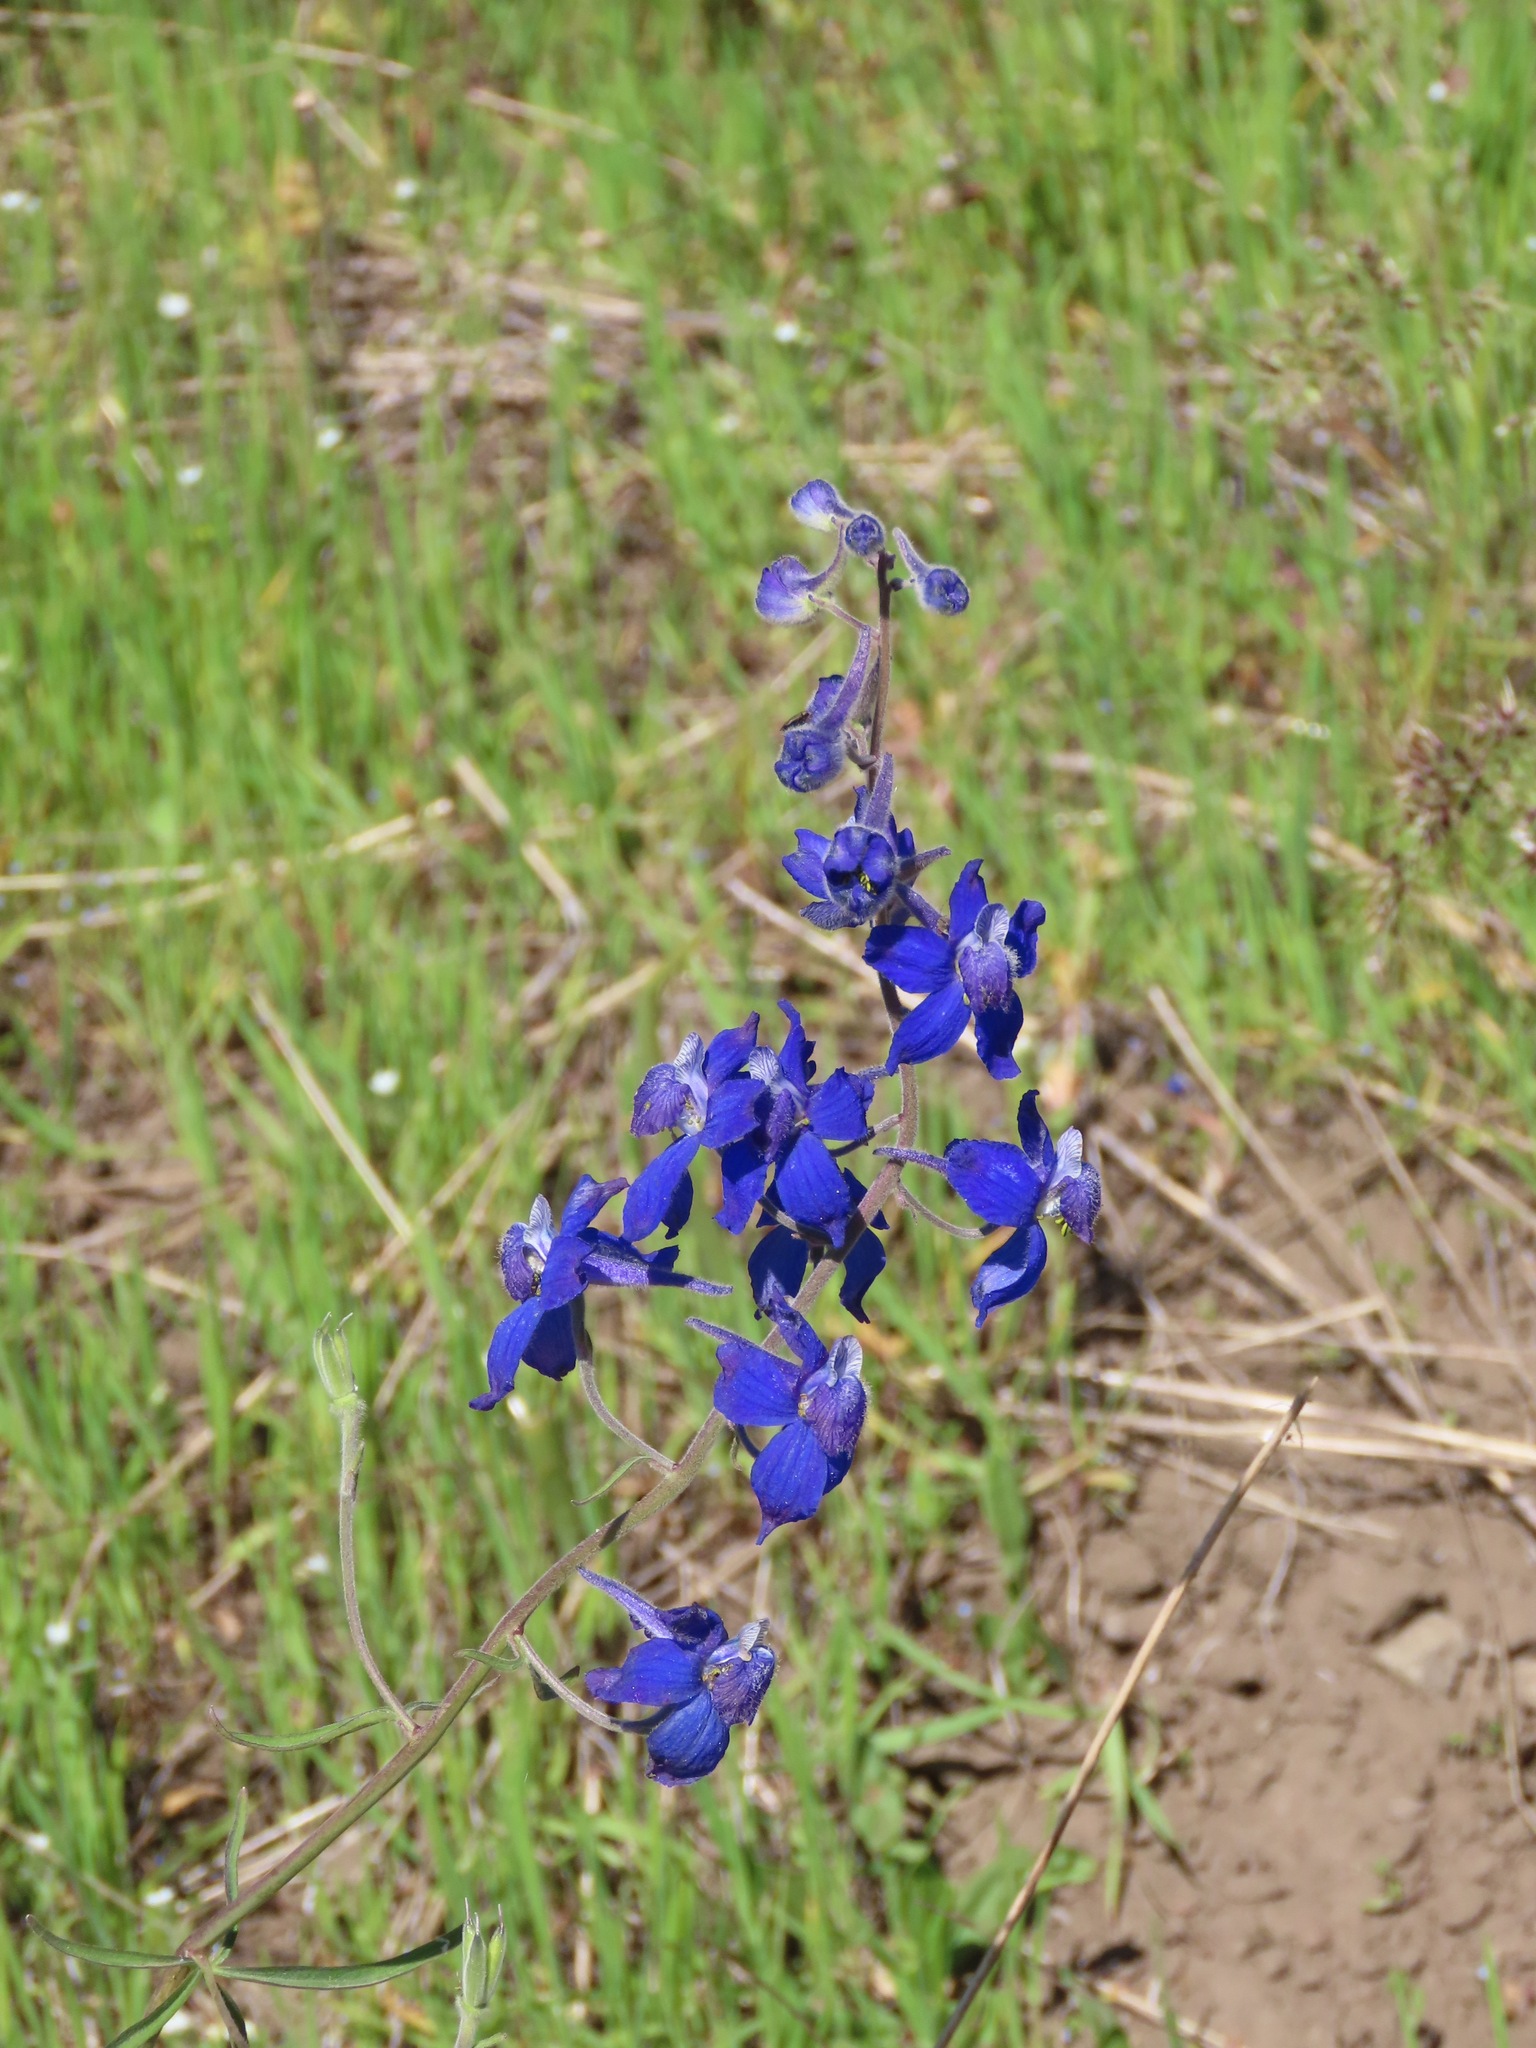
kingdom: Plantae
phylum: Tracheophyta
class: Magnoliopsida
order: Ranunculales
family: Ranunculaceae
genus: Delphinium
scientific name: Delphinium nuttallianum
